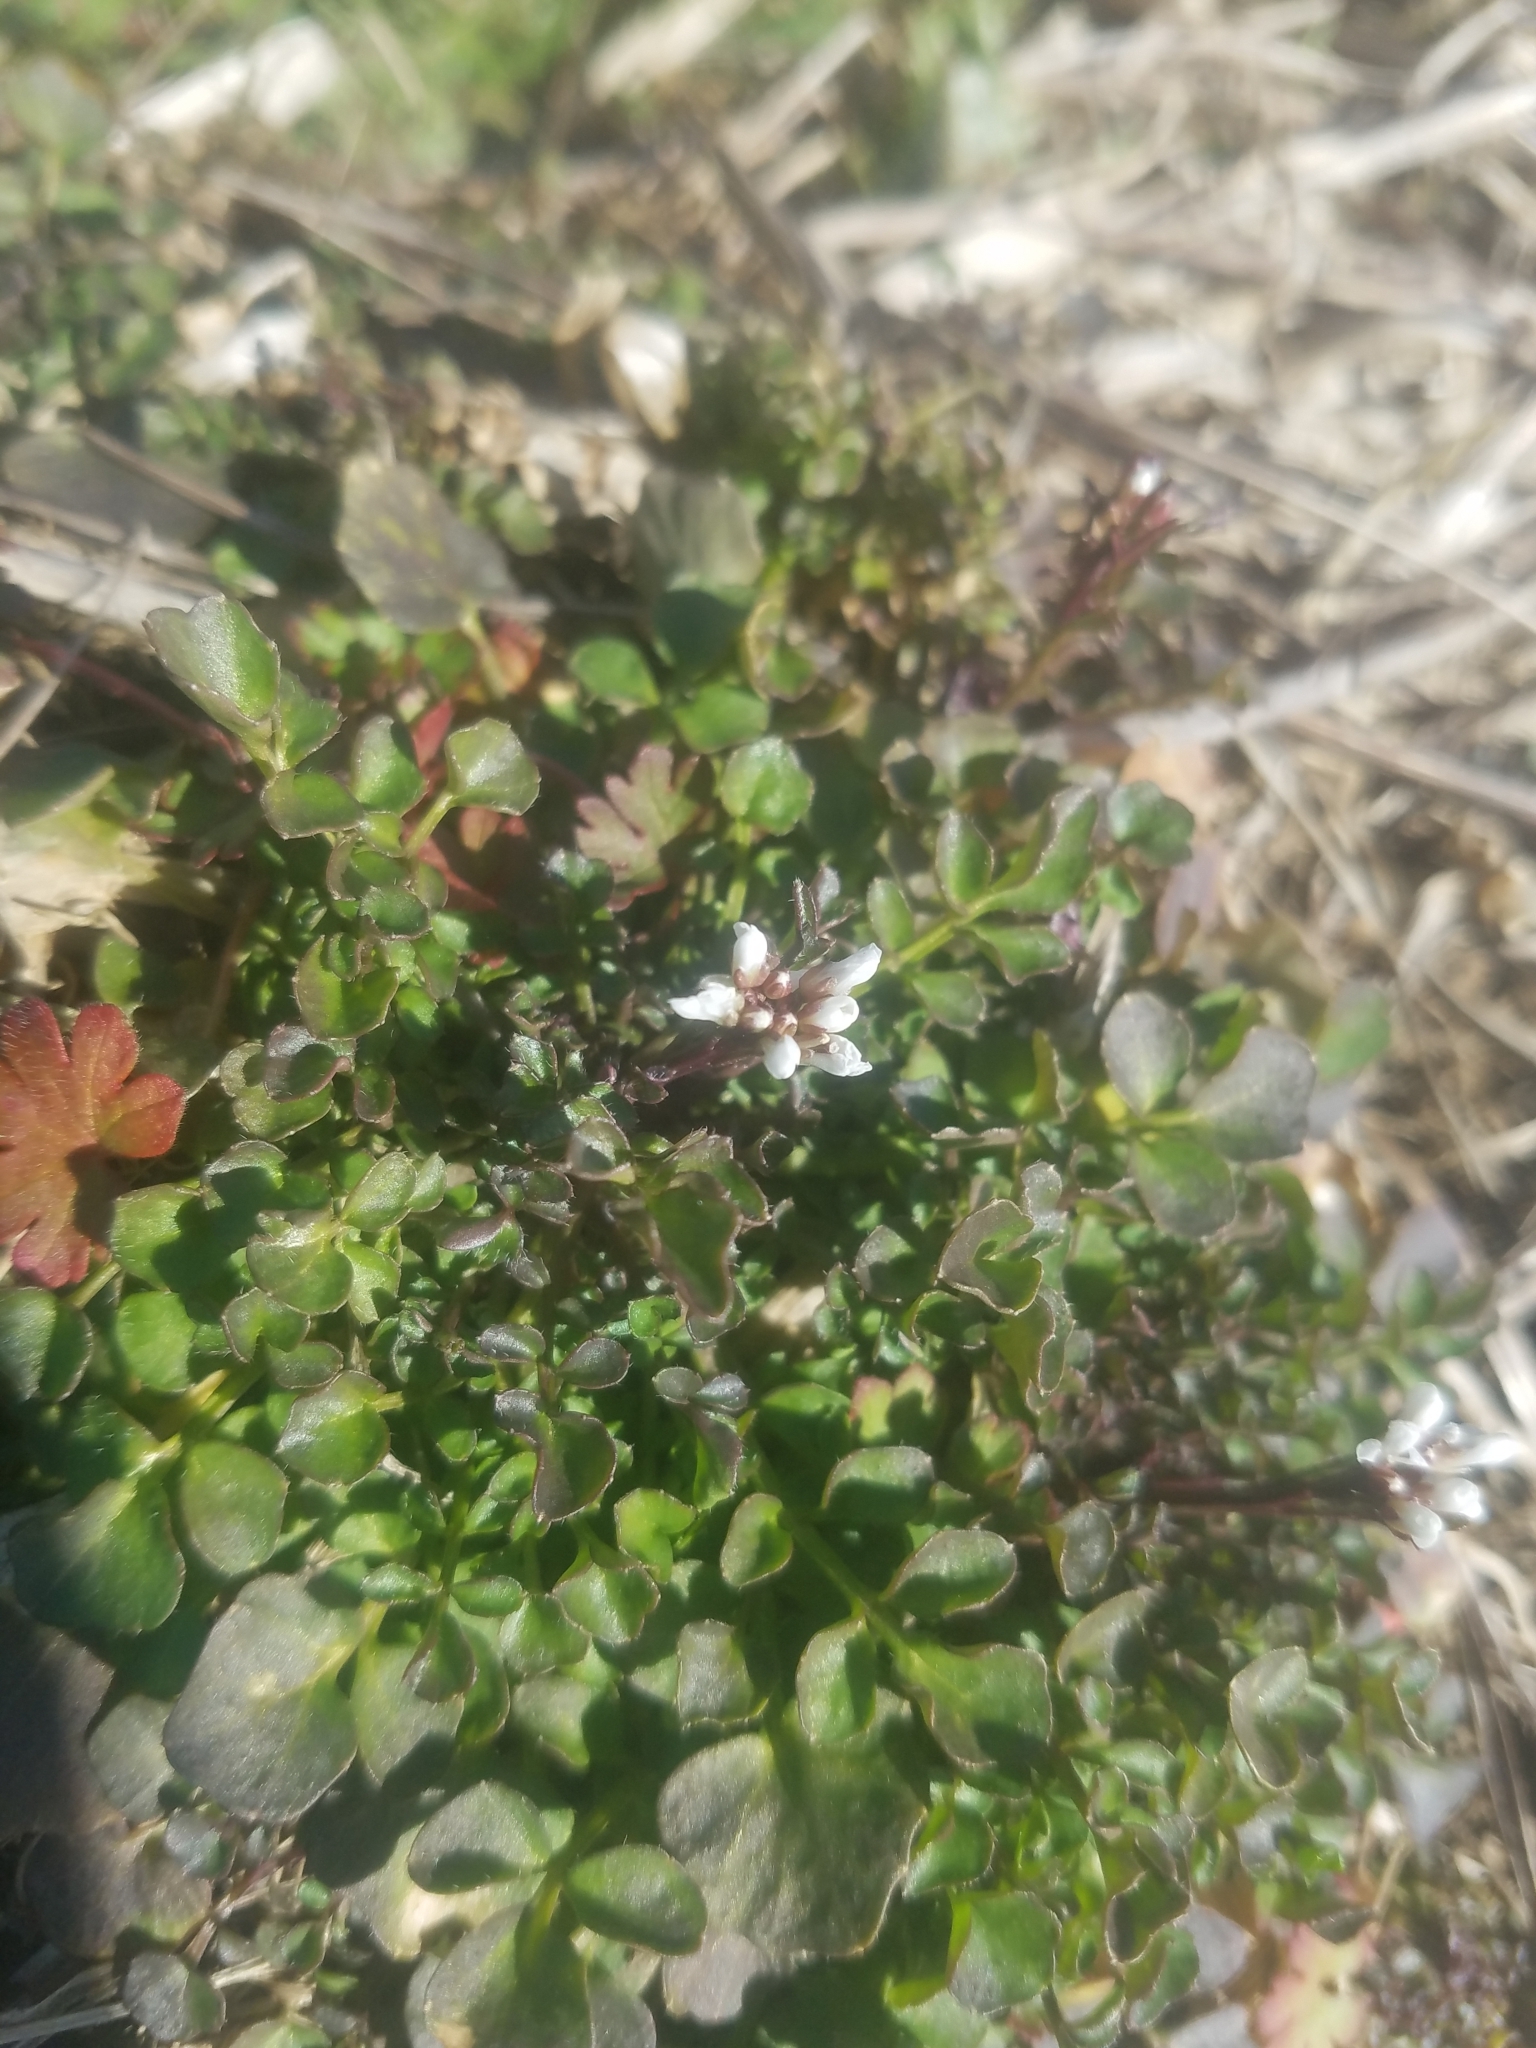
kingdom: Plantae
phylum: Tracheophyta
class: Magnoliopsida
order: Brassicales
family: Brassicaceae
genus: Cardamine
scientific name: Cardamine hirsuta
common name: Hairy bittercress
